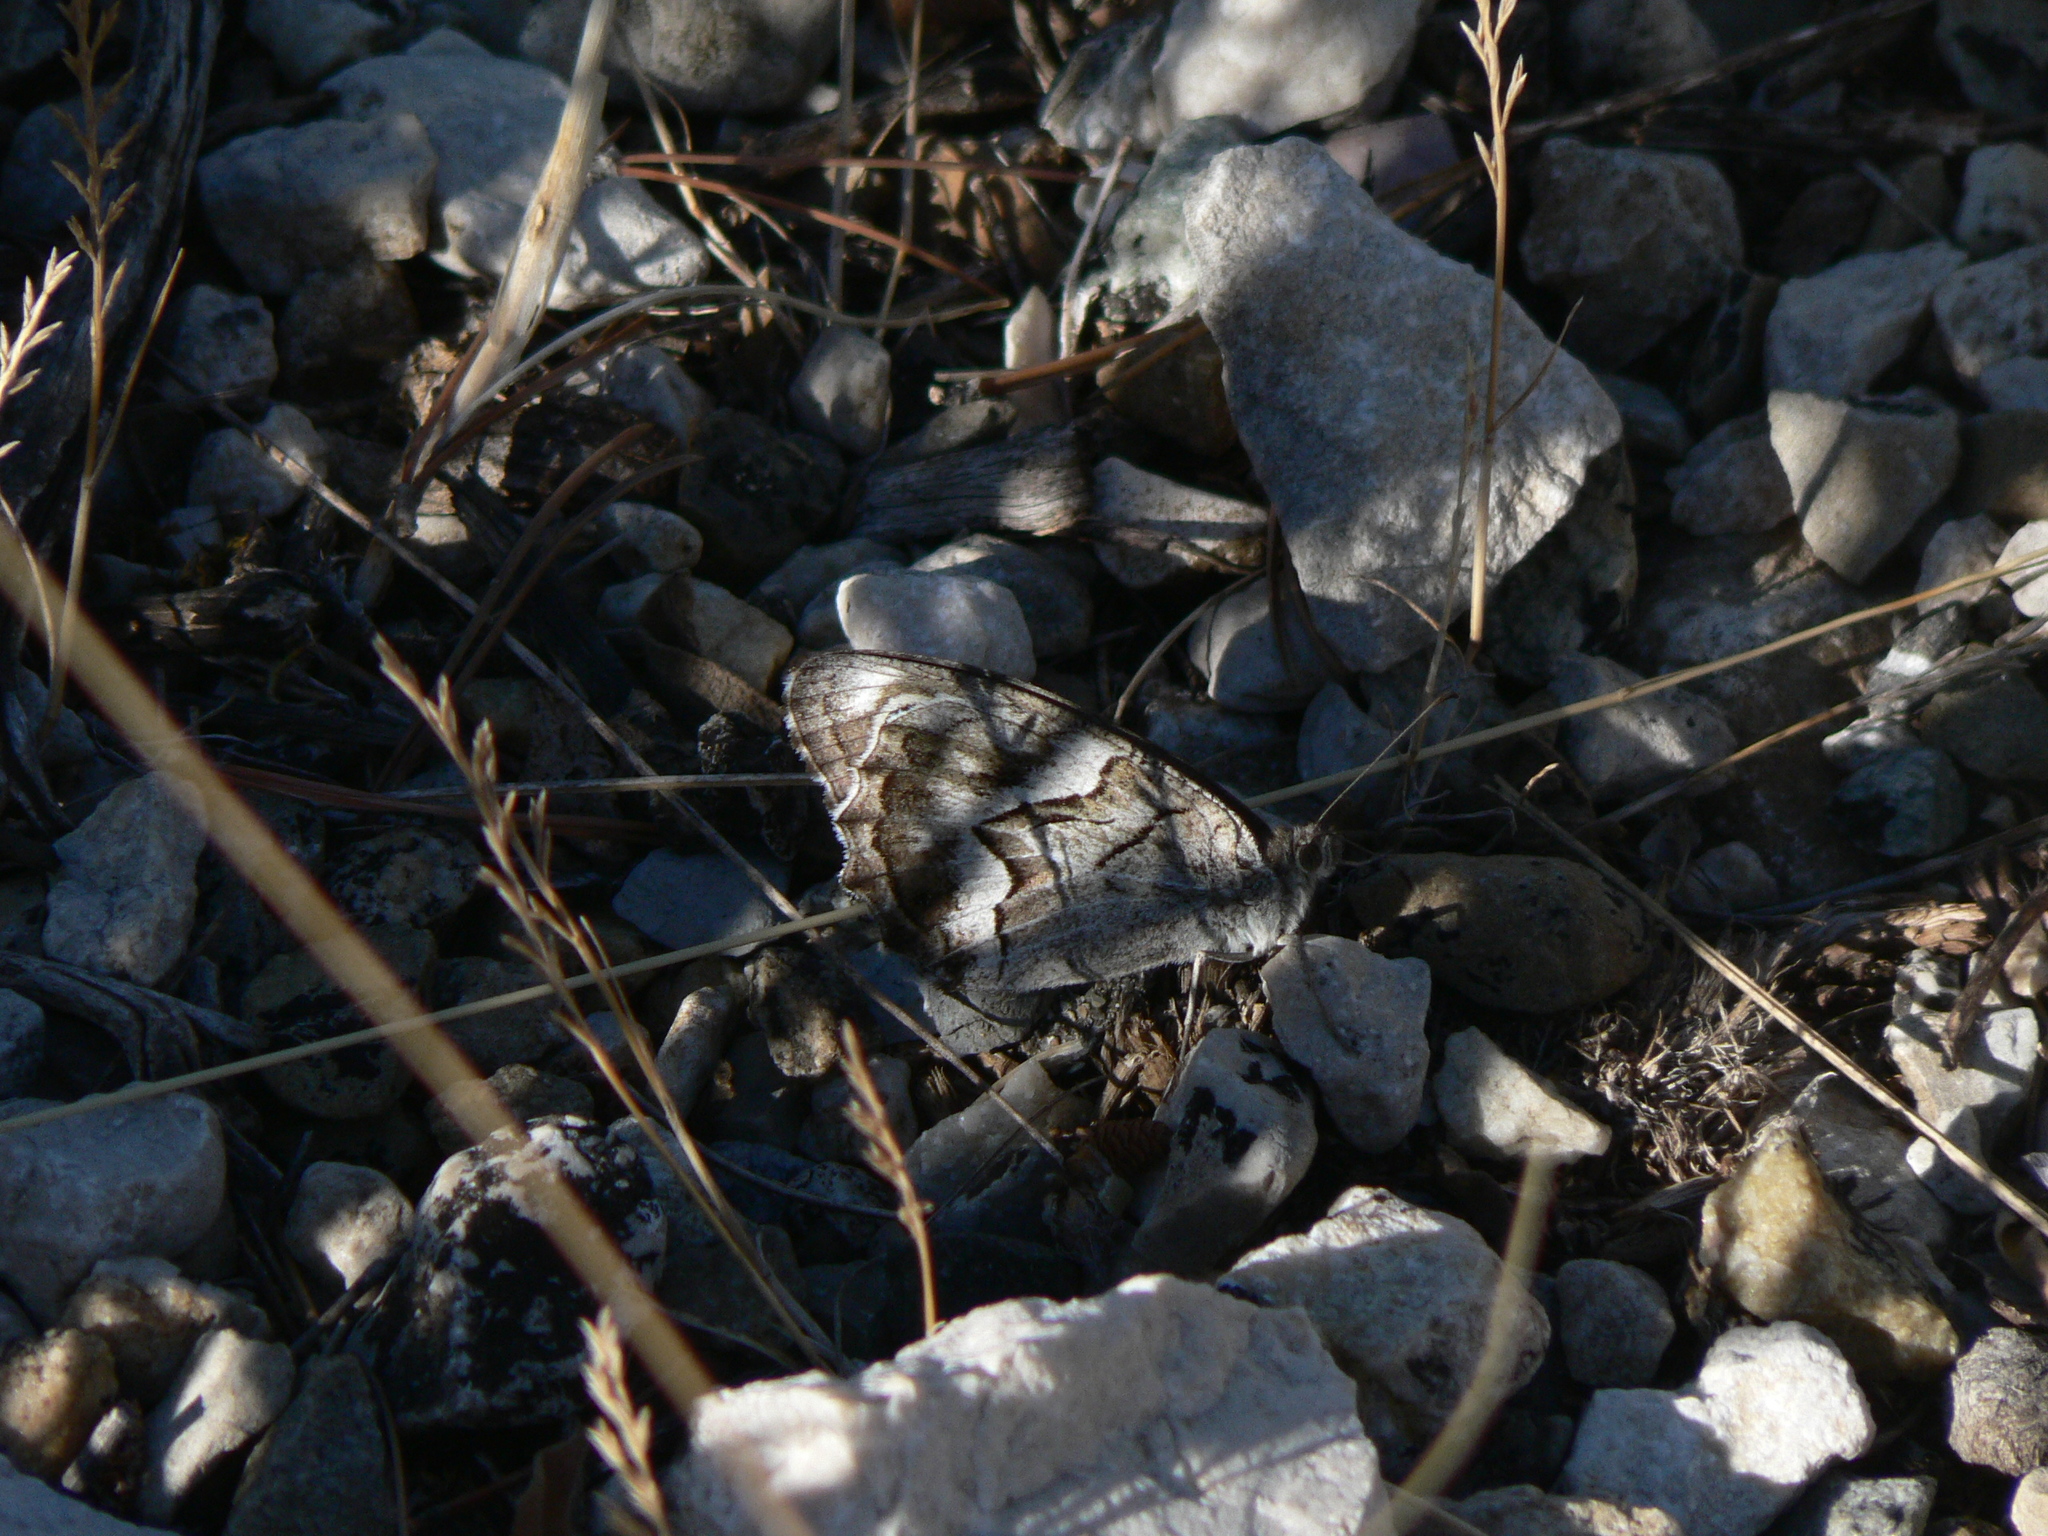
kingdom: Animalia
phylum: Arthropoda
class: Insecta
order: Lepidoptera
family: Nymphalidae
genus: Hipparchia
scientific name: Hipparchia fidia
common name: Striped grayling
